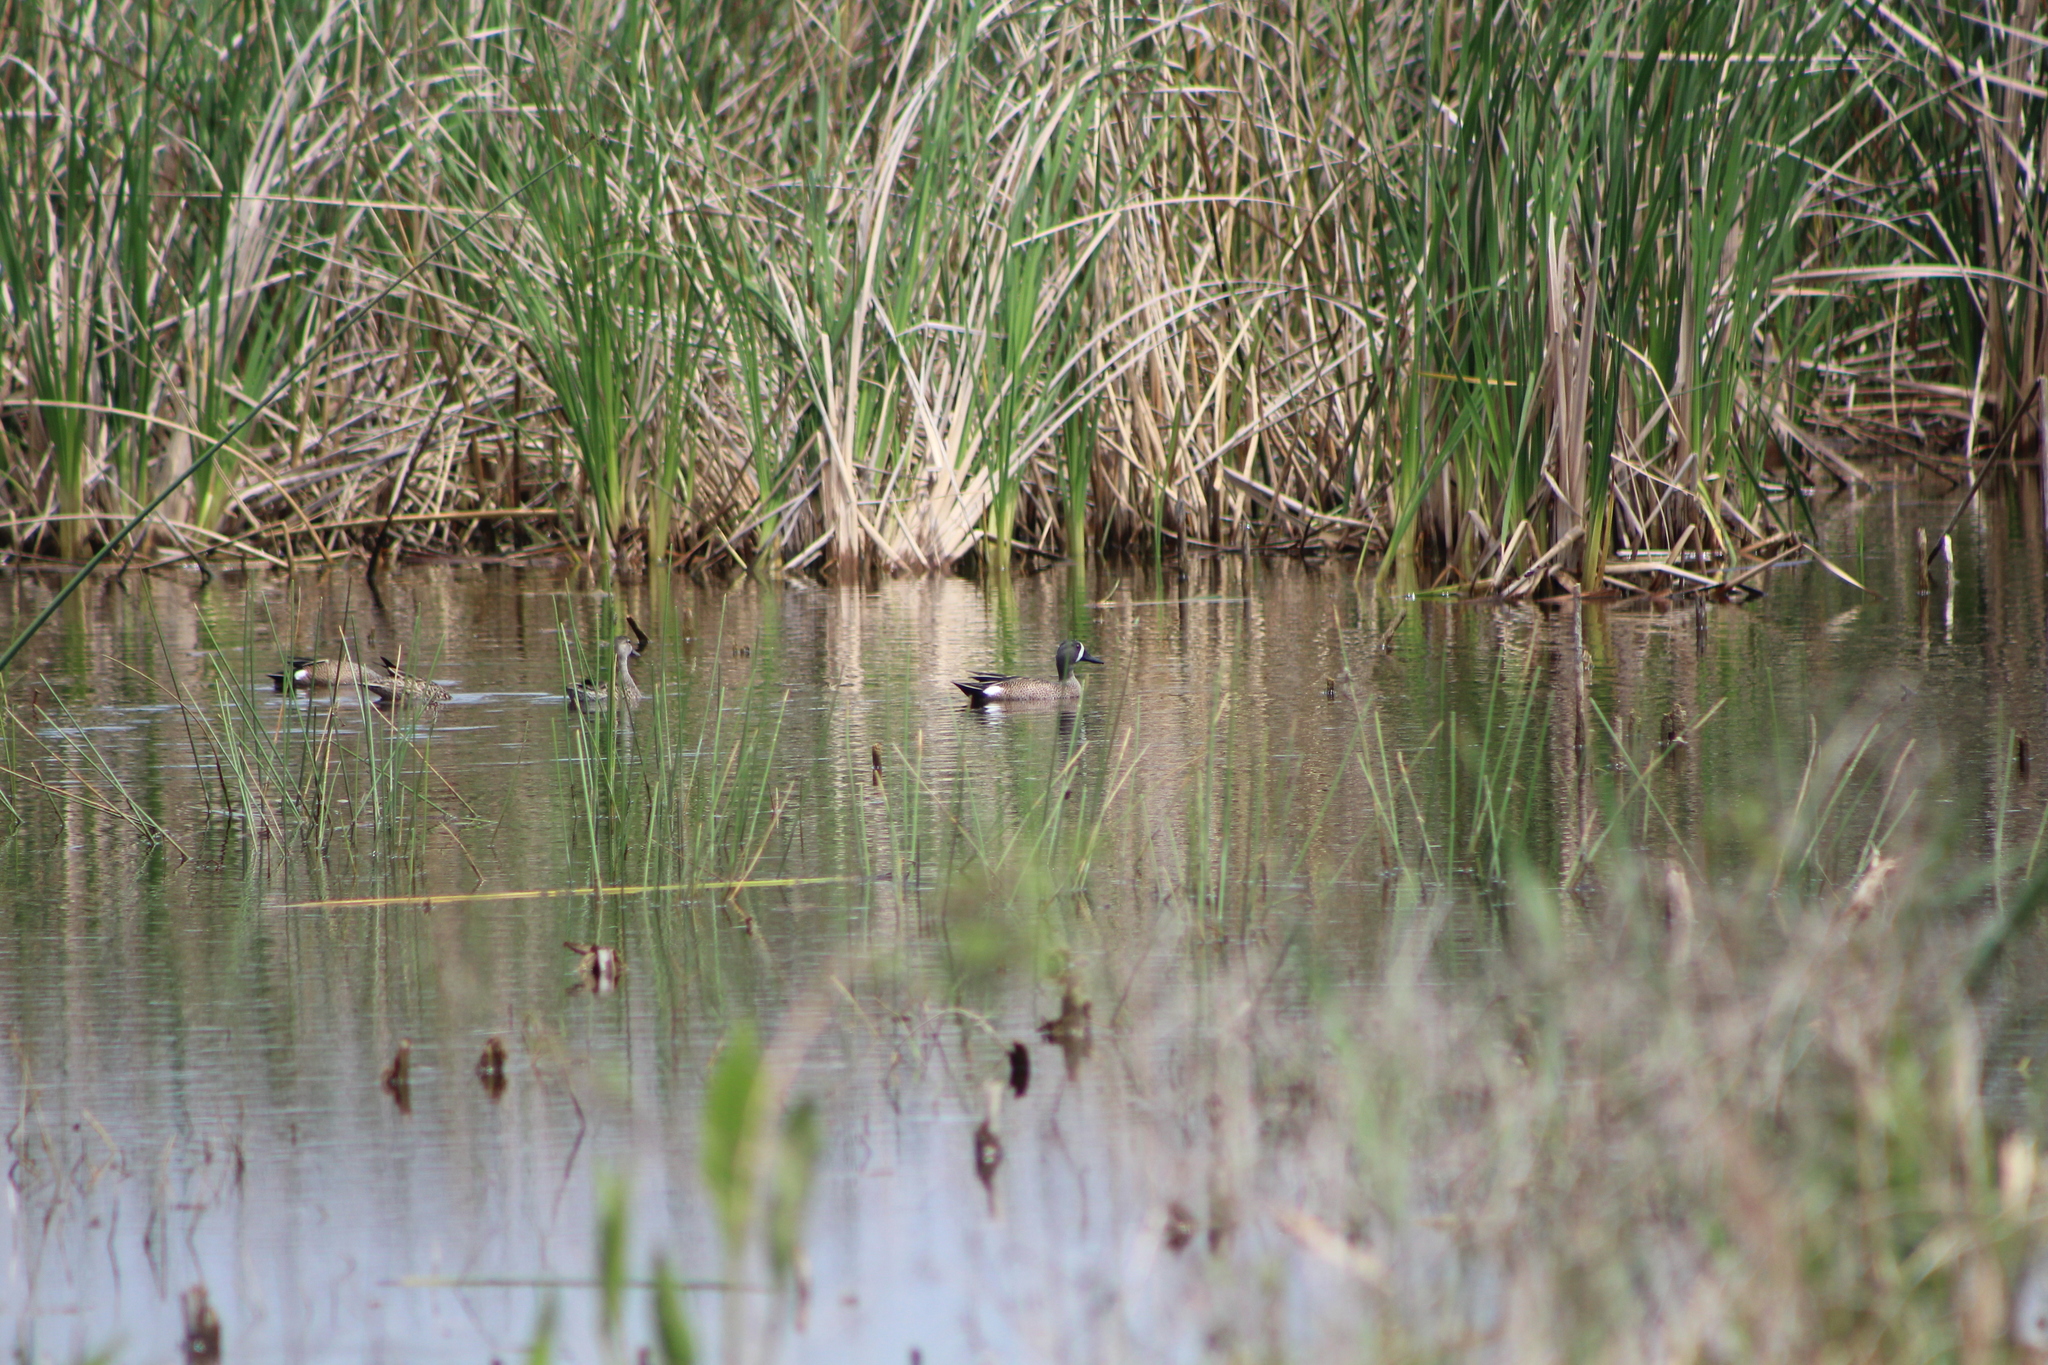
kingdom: Animalia
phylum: Chordata
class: Aves
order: Anseriformes
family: Anatidae
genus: Spatula
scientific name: Spatula discors
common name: Blue-winged teal
